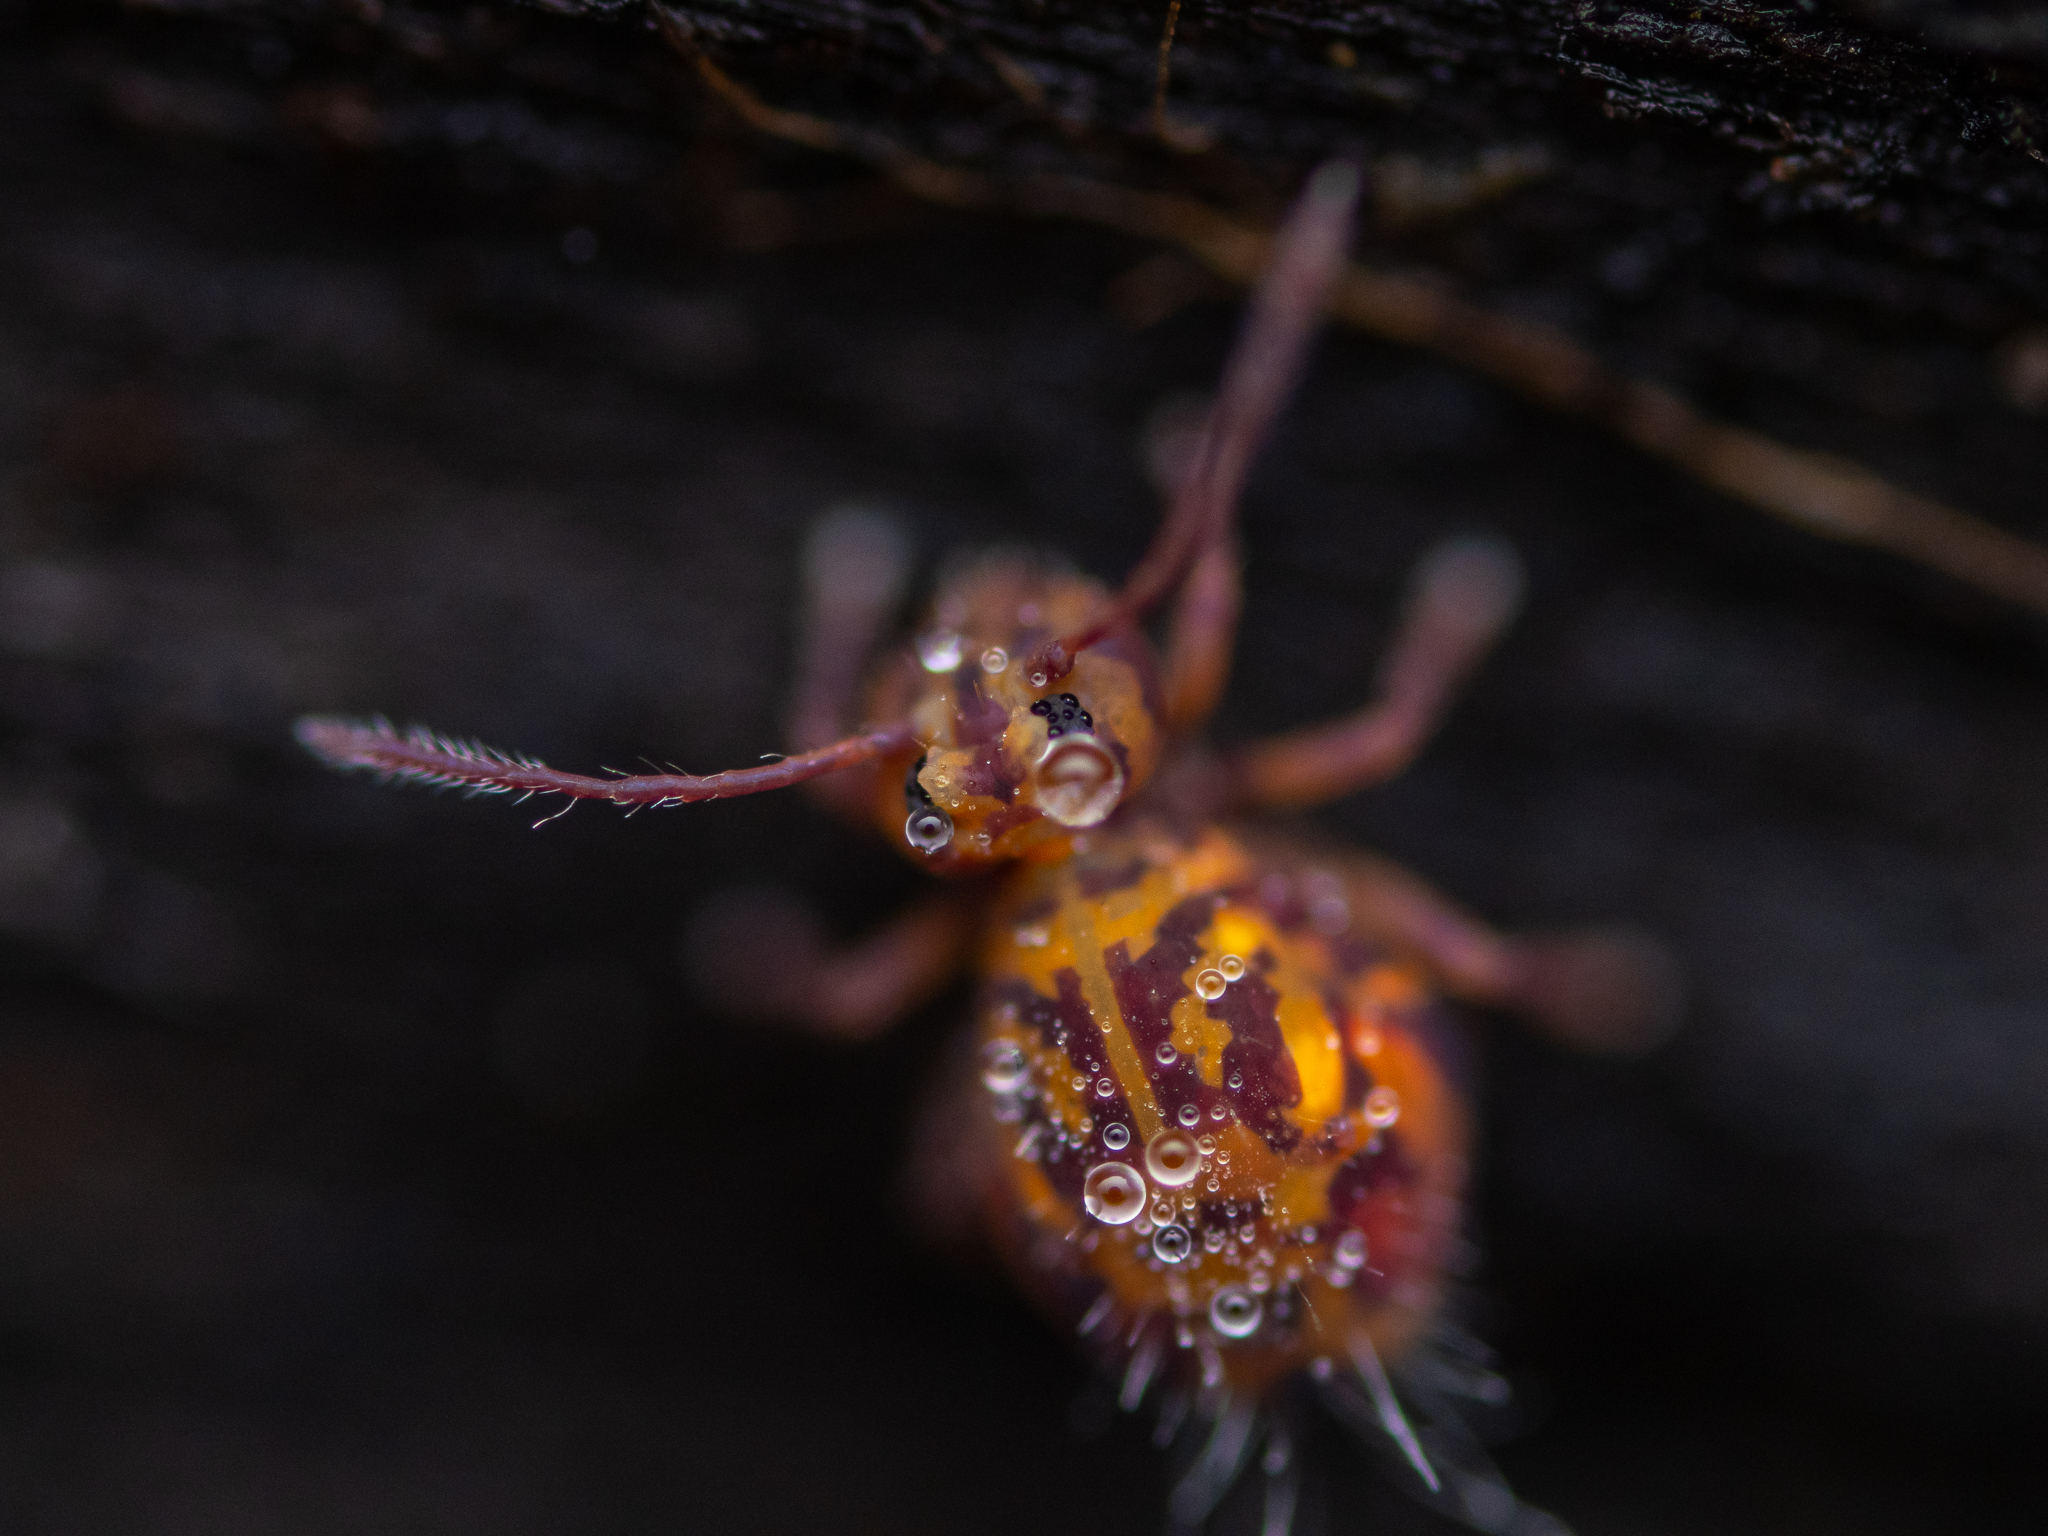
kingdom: Animalia
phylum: Arthropoda
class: Collembola
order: Symphypleona
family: Dicyrtomidae
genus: Dicyrtomina
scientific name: Dicyrtomina ornata
